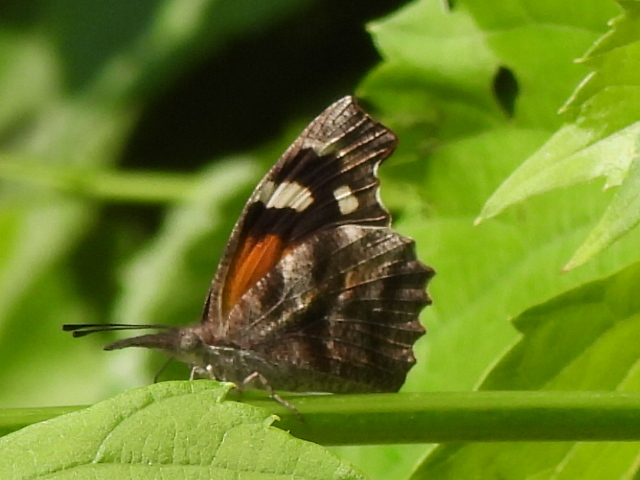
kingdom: Animalia
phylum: Arthropoda
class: Insecta
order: Lepidoptera
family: Nymphalidae
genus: Libytheana
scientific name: Libytheana carinenta
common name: American snout
